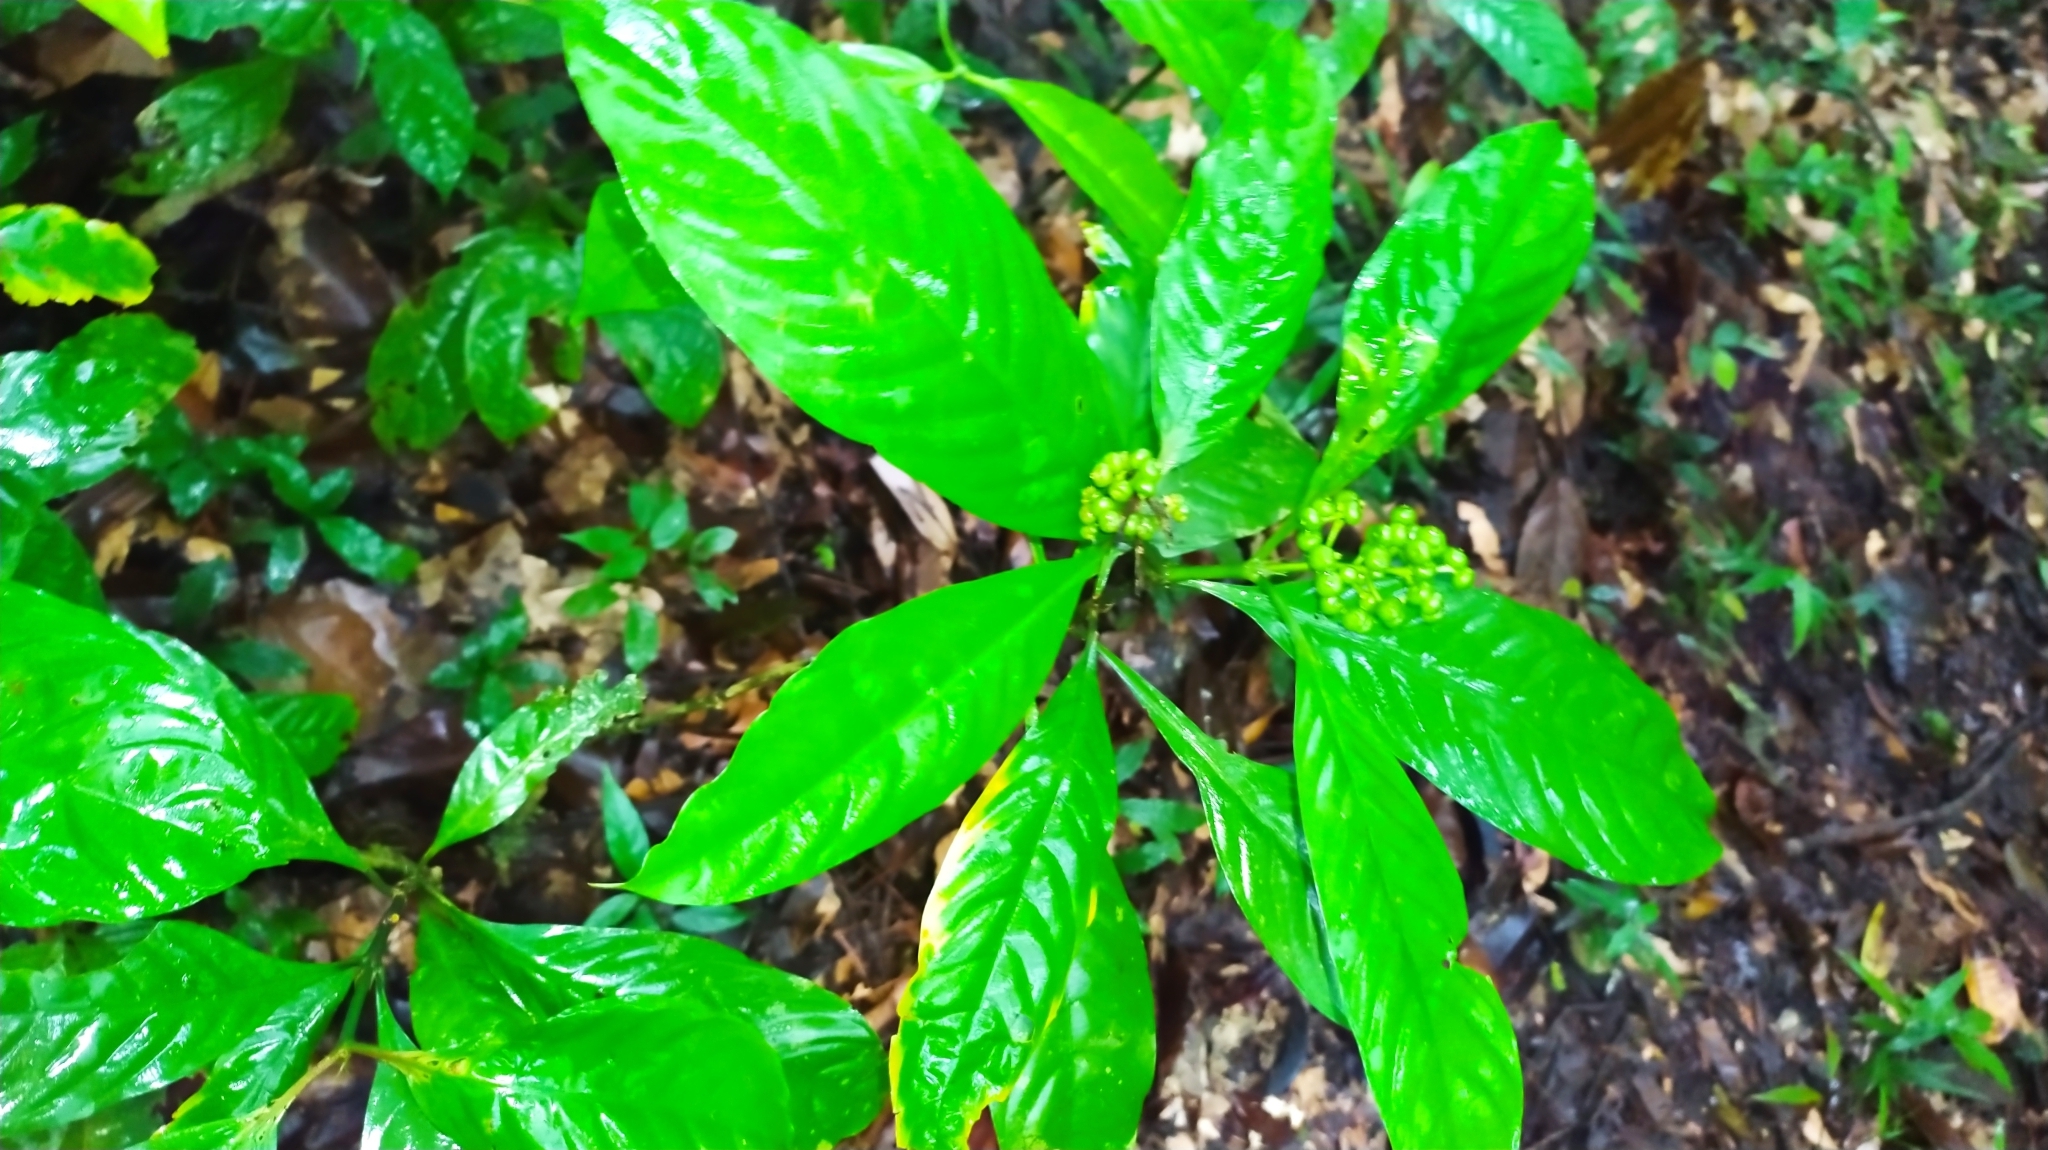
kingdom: Plantae
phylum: Tracheophyta
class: Magnoliopsida
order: Gentianales
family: Rubiaceae
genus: Palicourea
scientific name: Palicourea racemosa
